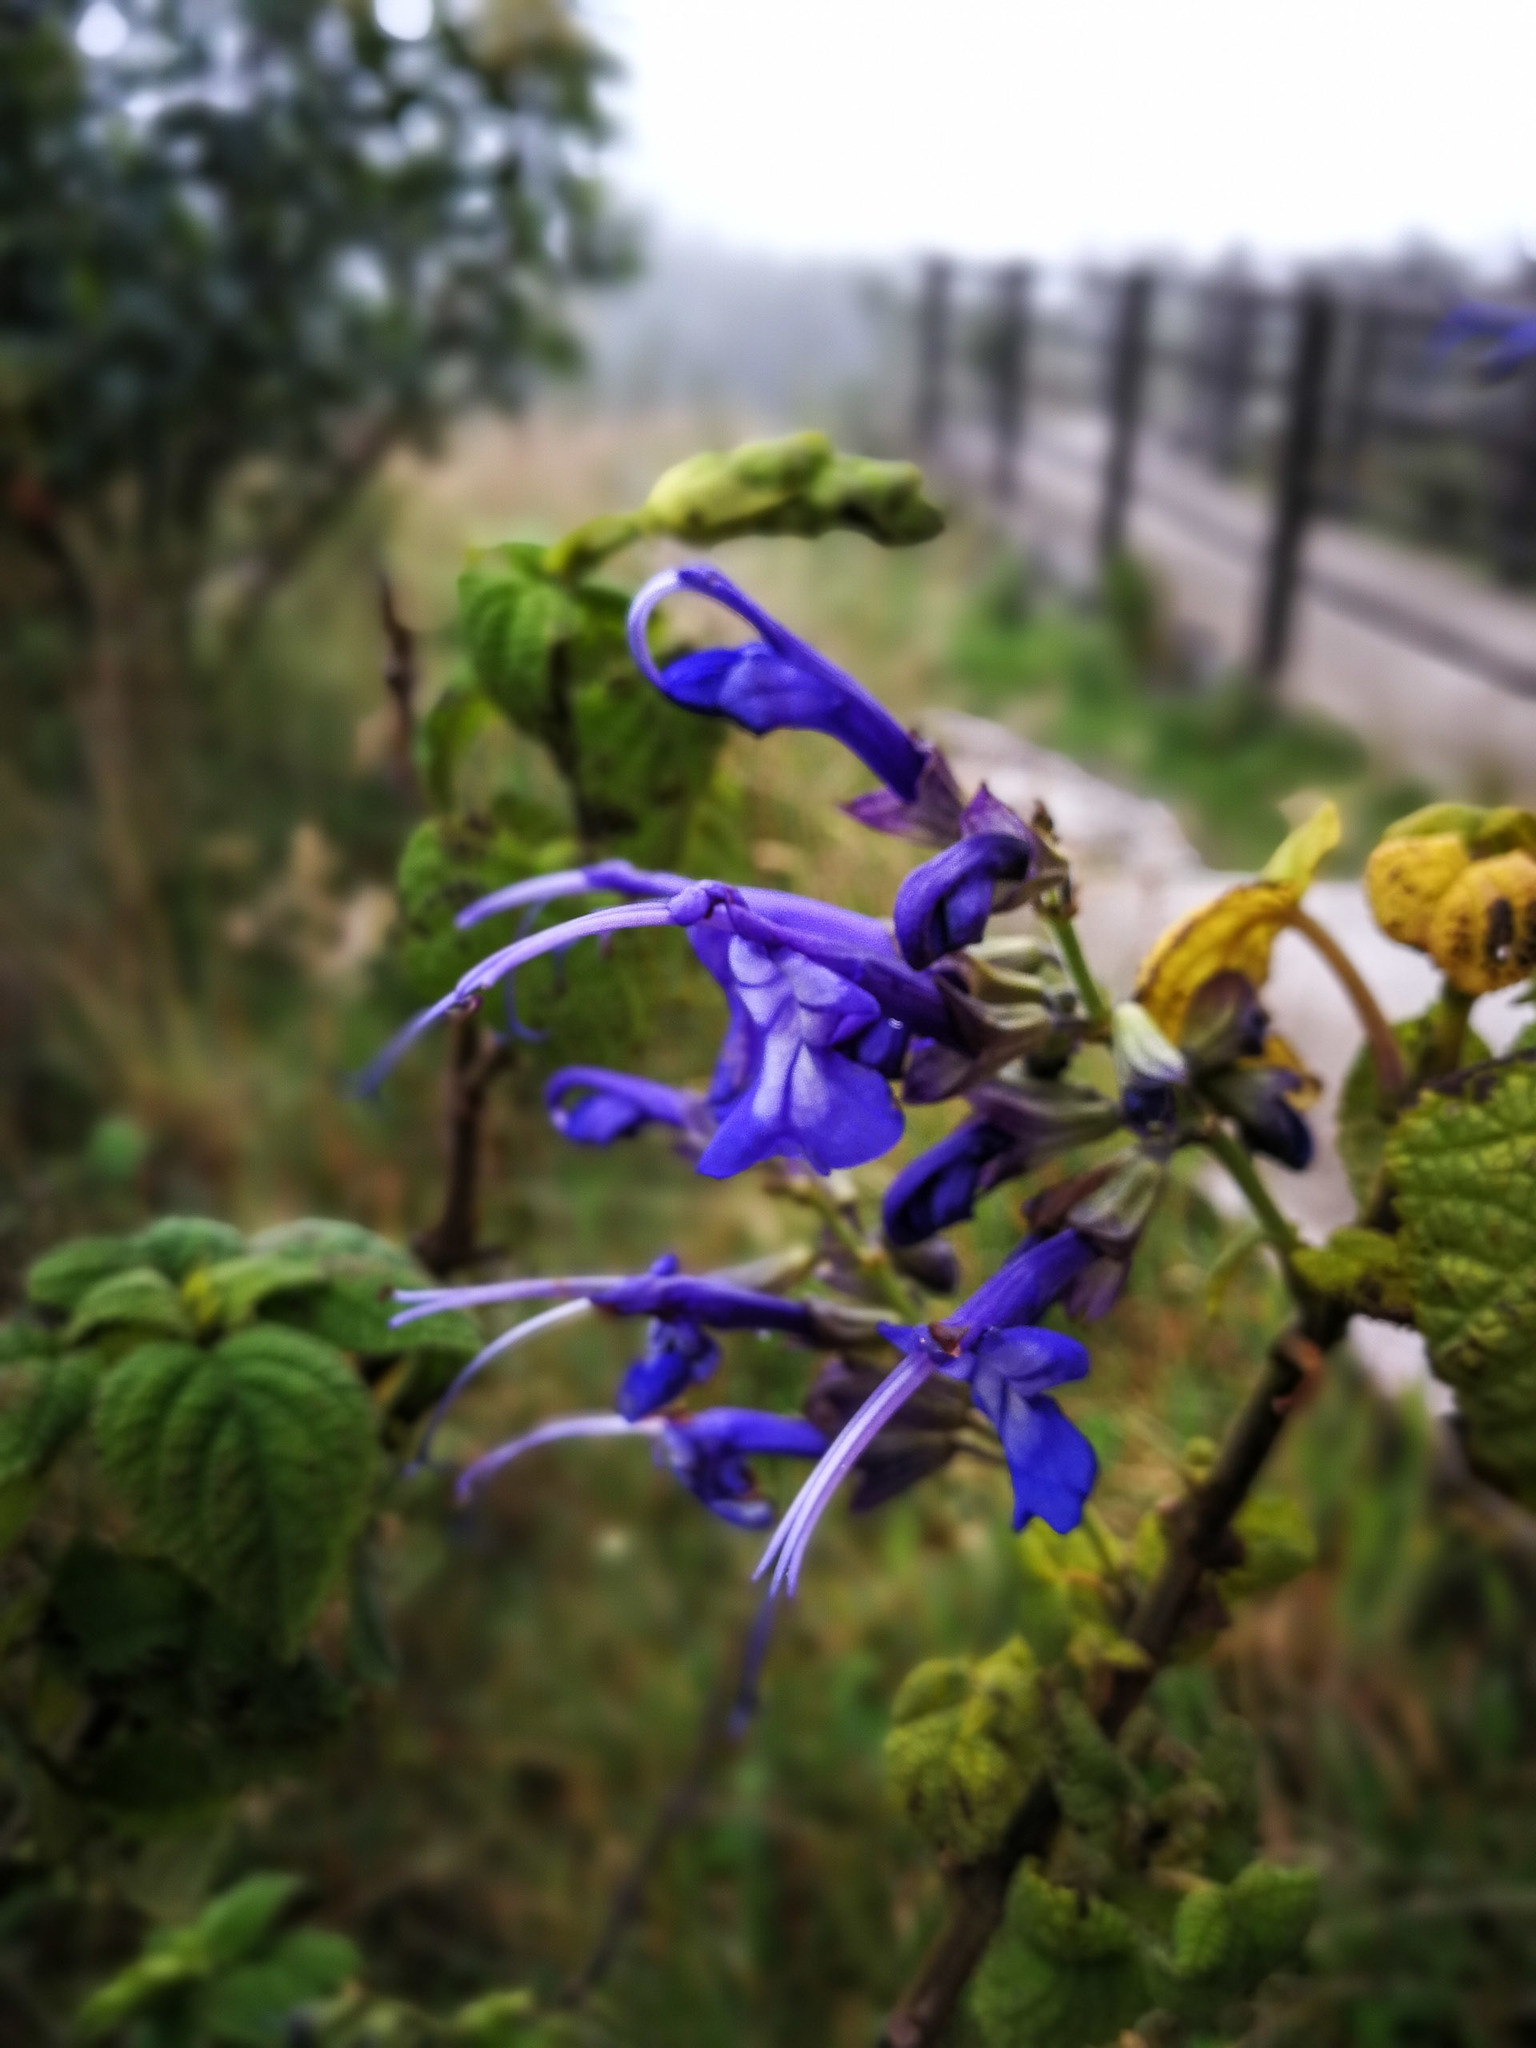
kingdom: Plantae
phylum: Tracheophyta
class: Magnoliopsida
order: Lamiales
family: Lamiaceae
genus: Salvia
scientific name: Salvia pichinchensis
